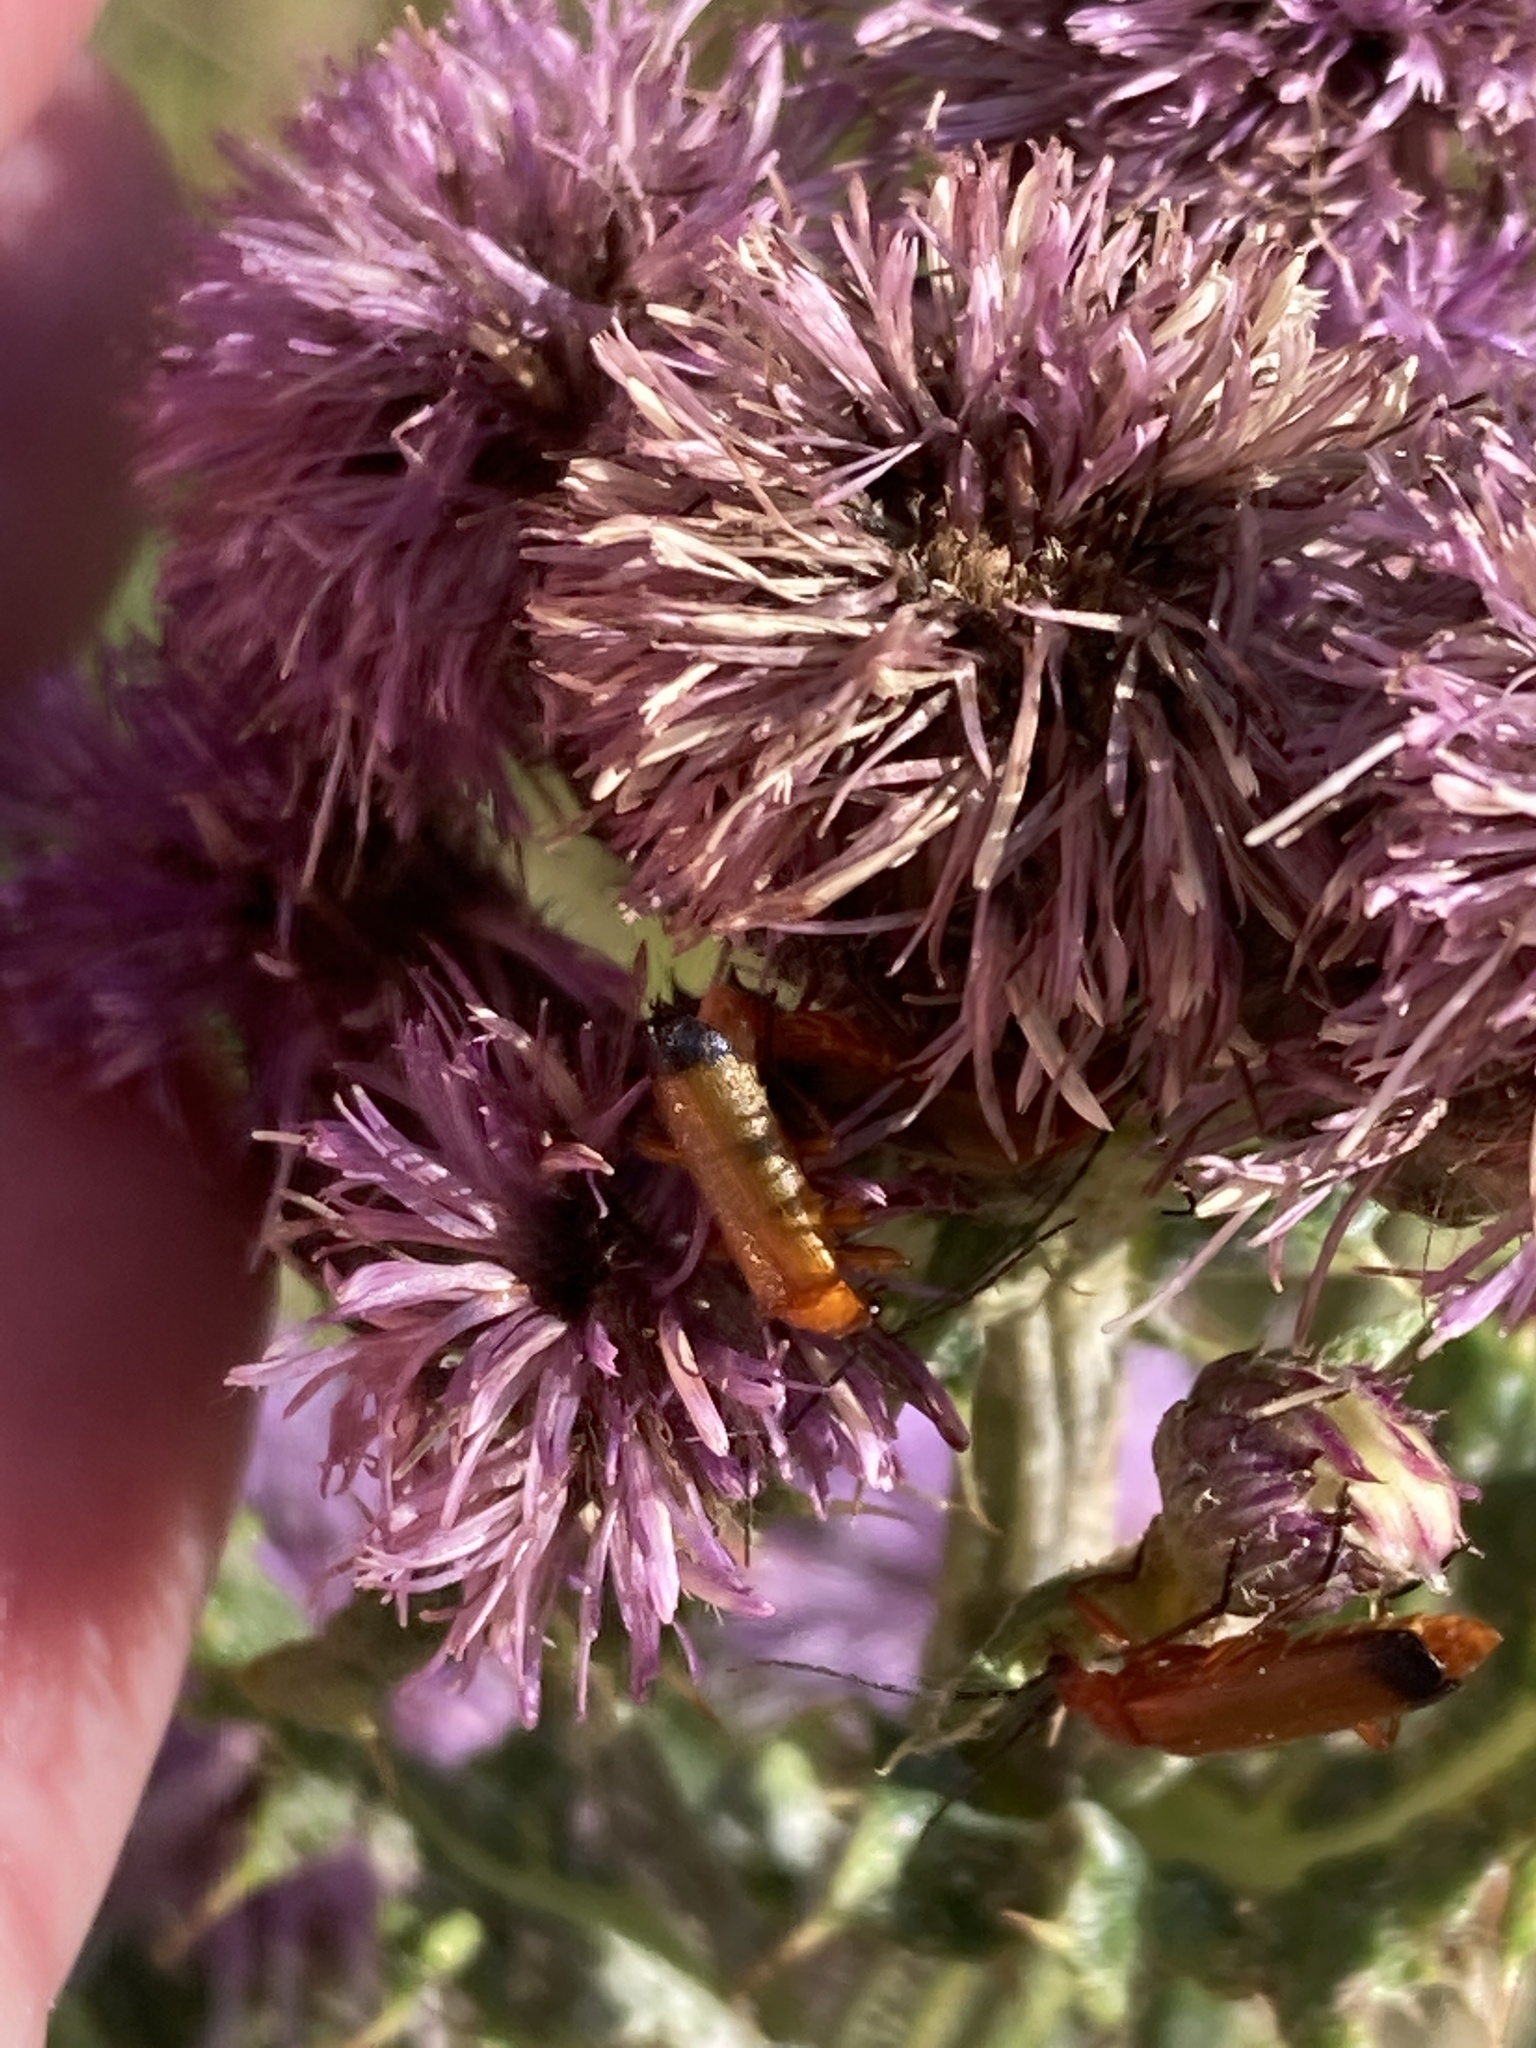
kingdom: Animalia
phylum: Arthropoda
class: Insecta
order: Coleoptera
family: Cantharidae
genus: Rhagonycha
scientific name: Rhagonycha fulva
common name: Common red soldier beetle
